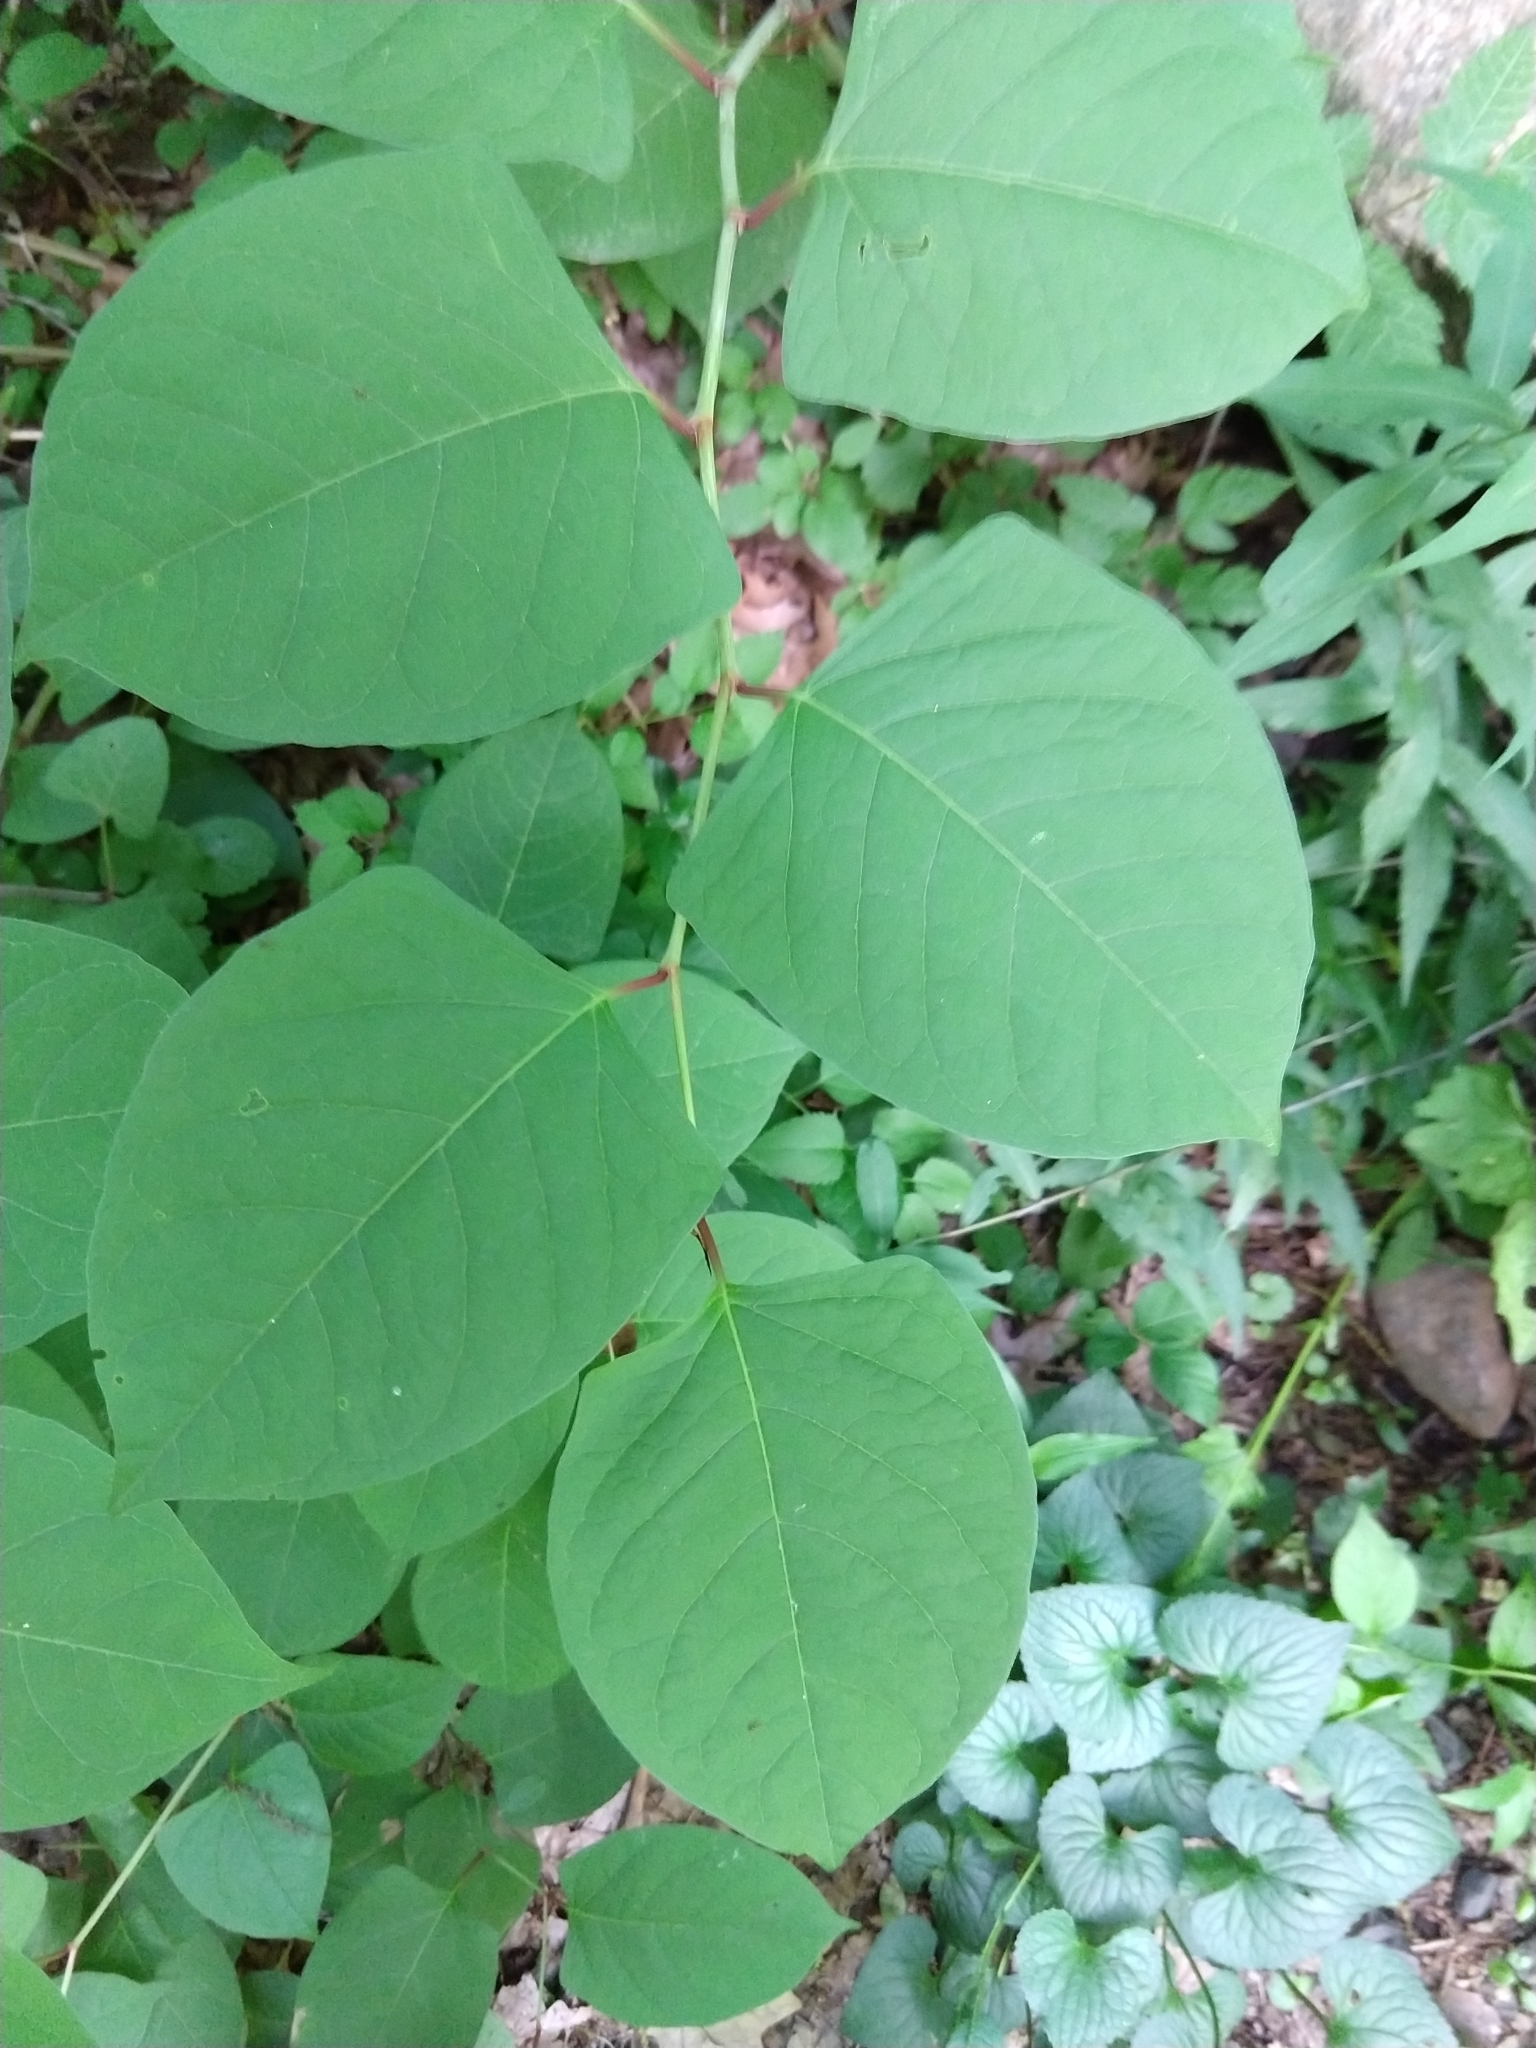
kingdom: Plantae
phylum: Tracheophyta
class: Magnoliopsida
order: Caryophyllales
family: Polygonaceae
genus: Reynoutria
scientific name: Reynoutria japonica
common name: Japanese knotweed
